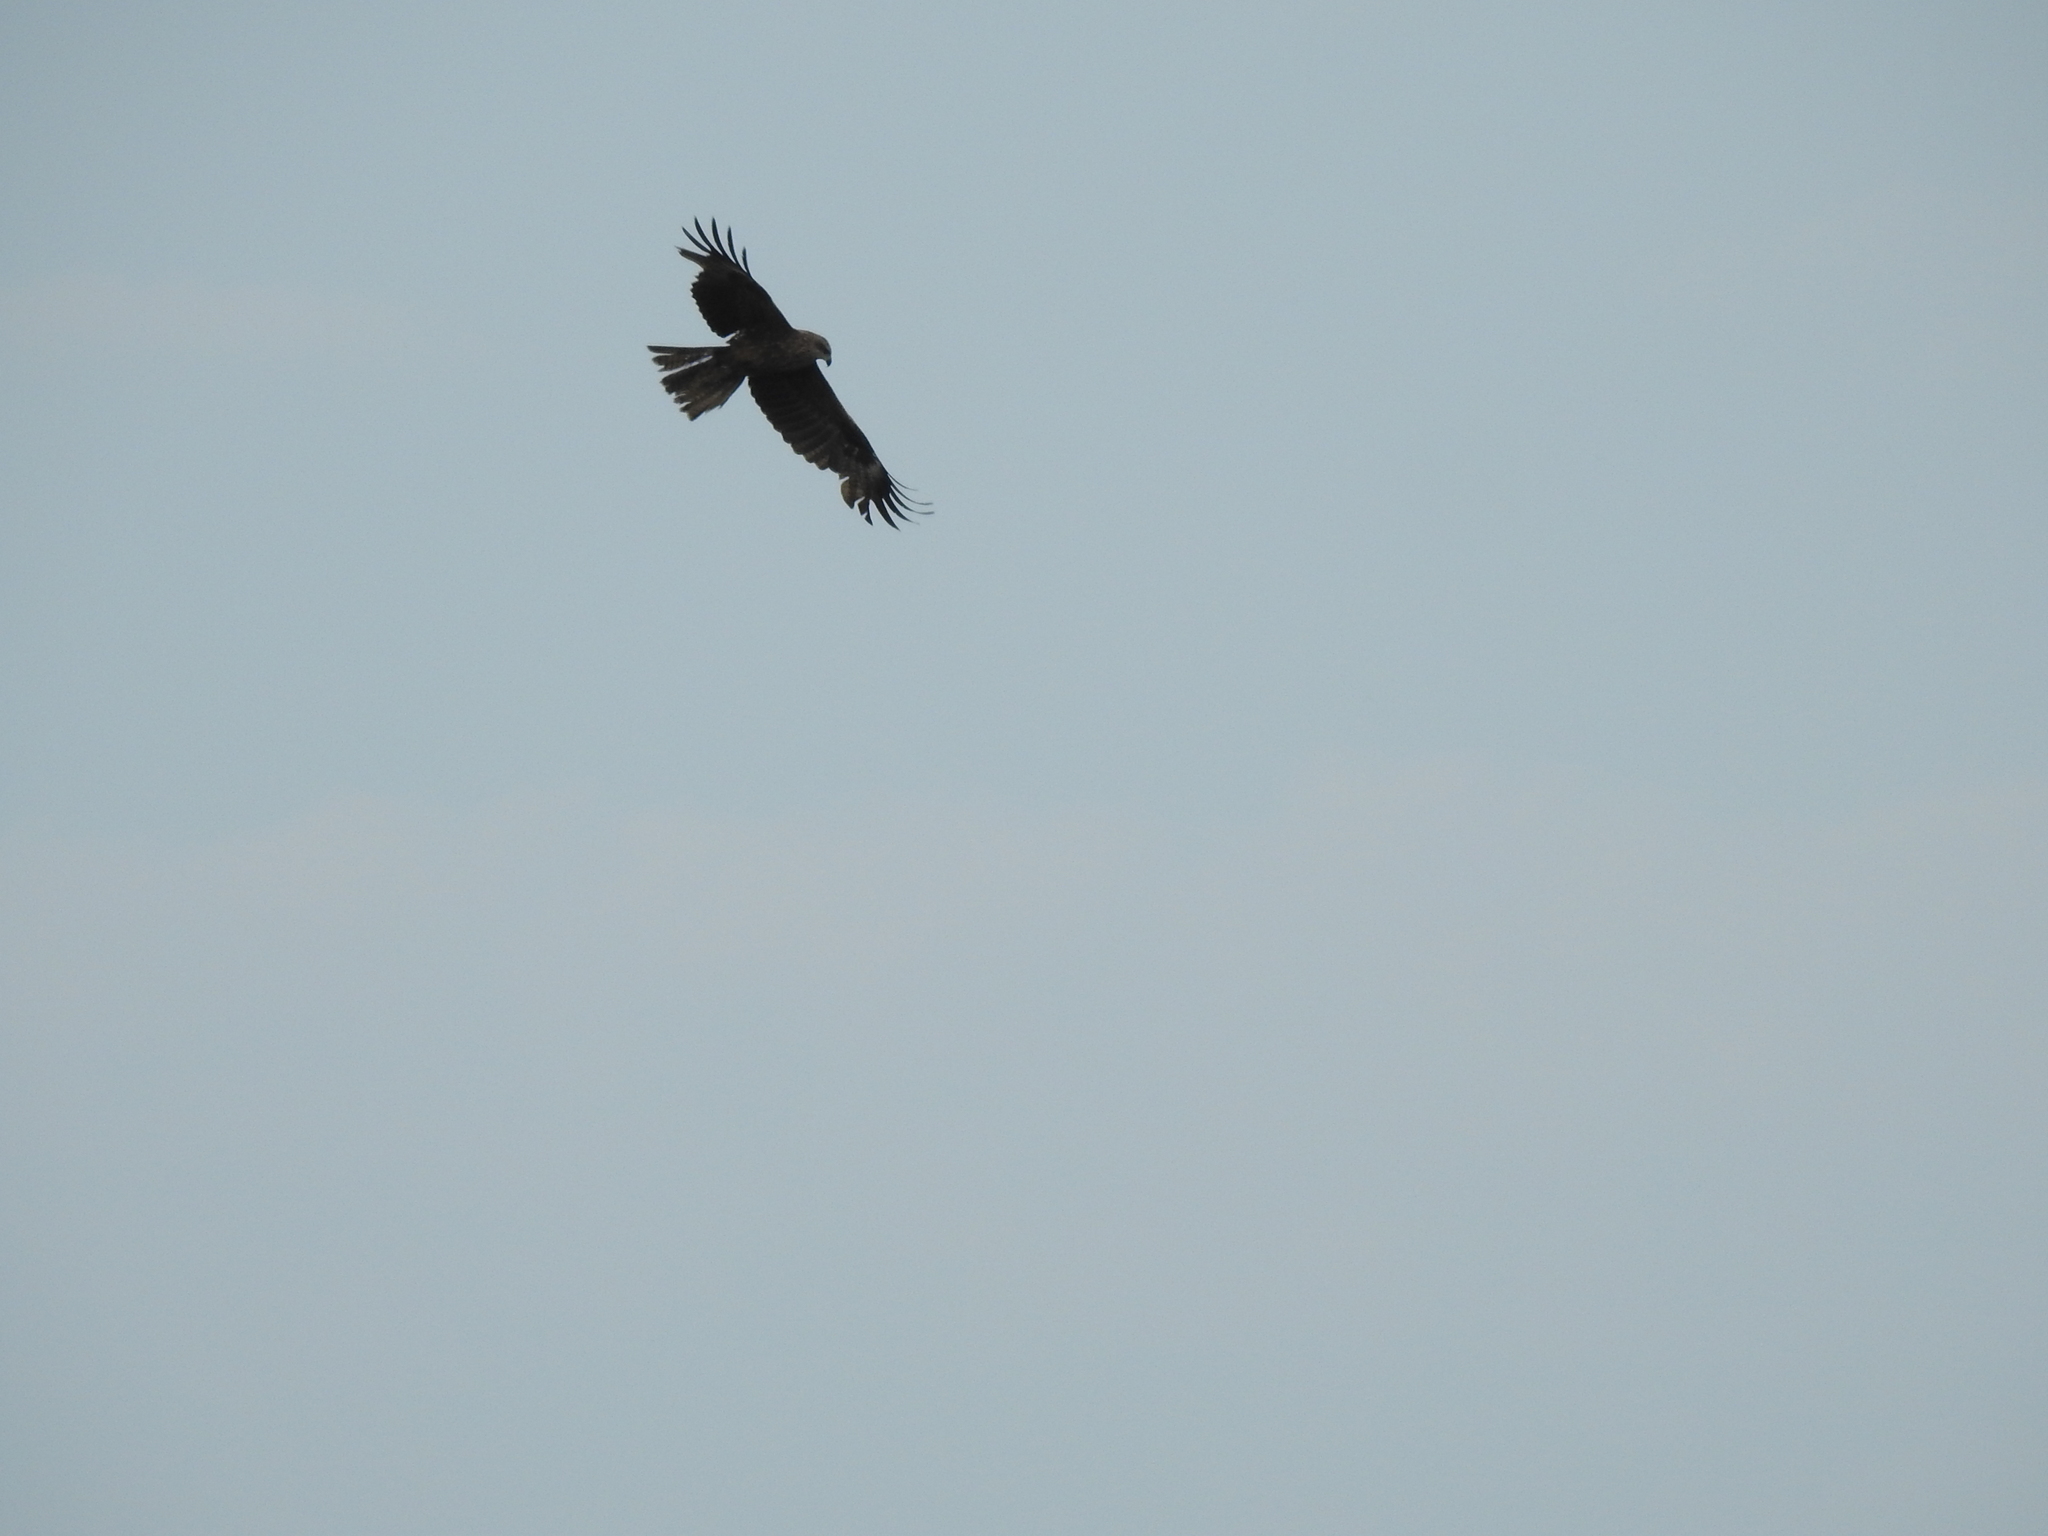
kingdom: Animalia
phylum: Chordata
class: Aves
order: Accipitriformes
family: Accipitridae
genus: Milvus
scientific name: Milvus migrans
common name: Black kite
